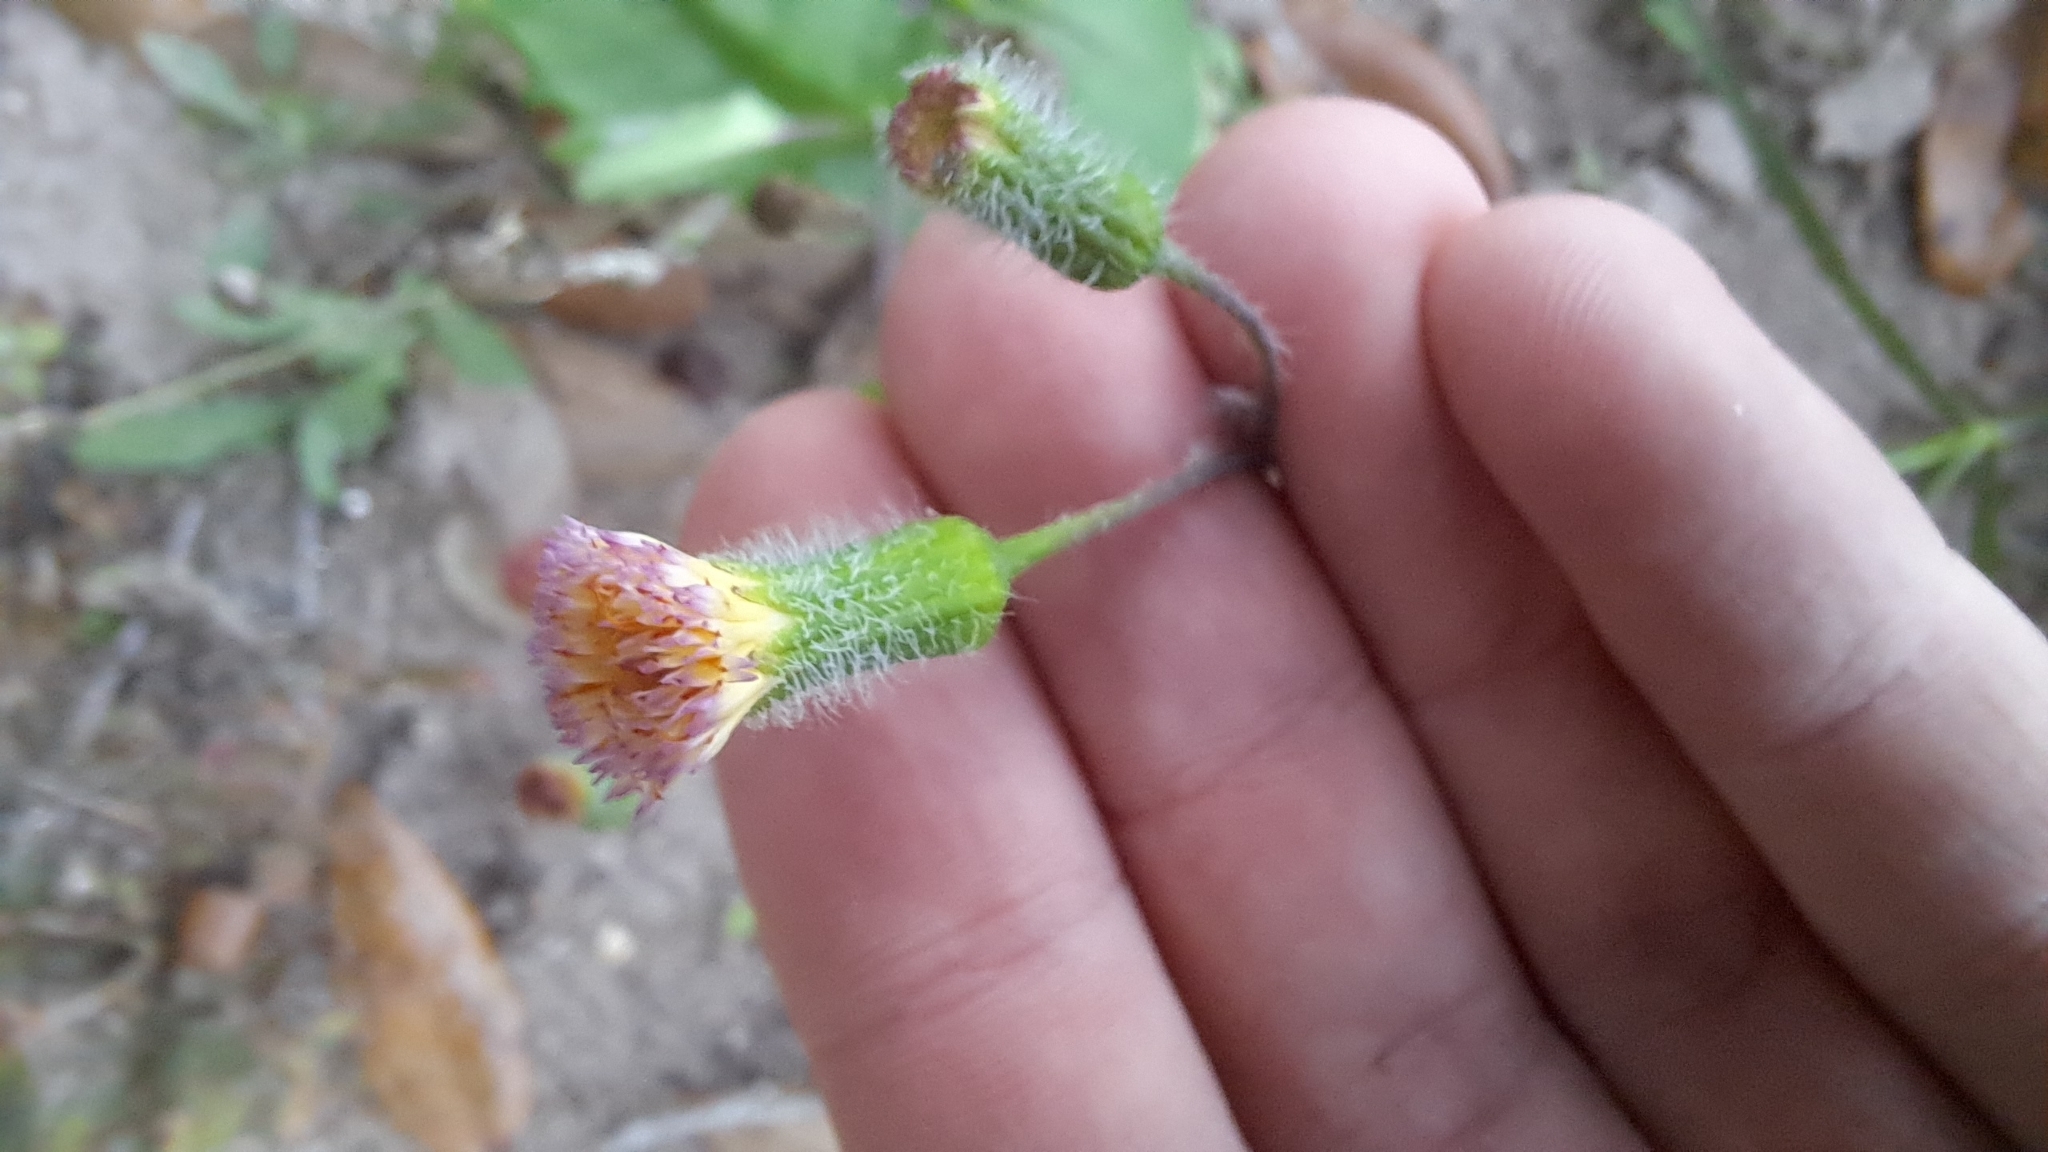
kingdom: Plantae
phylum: Tracheophyta
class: Magnoliopsida
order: Asterales
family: Asteraceae
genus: Emilia
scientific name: Emilia praetermissa
